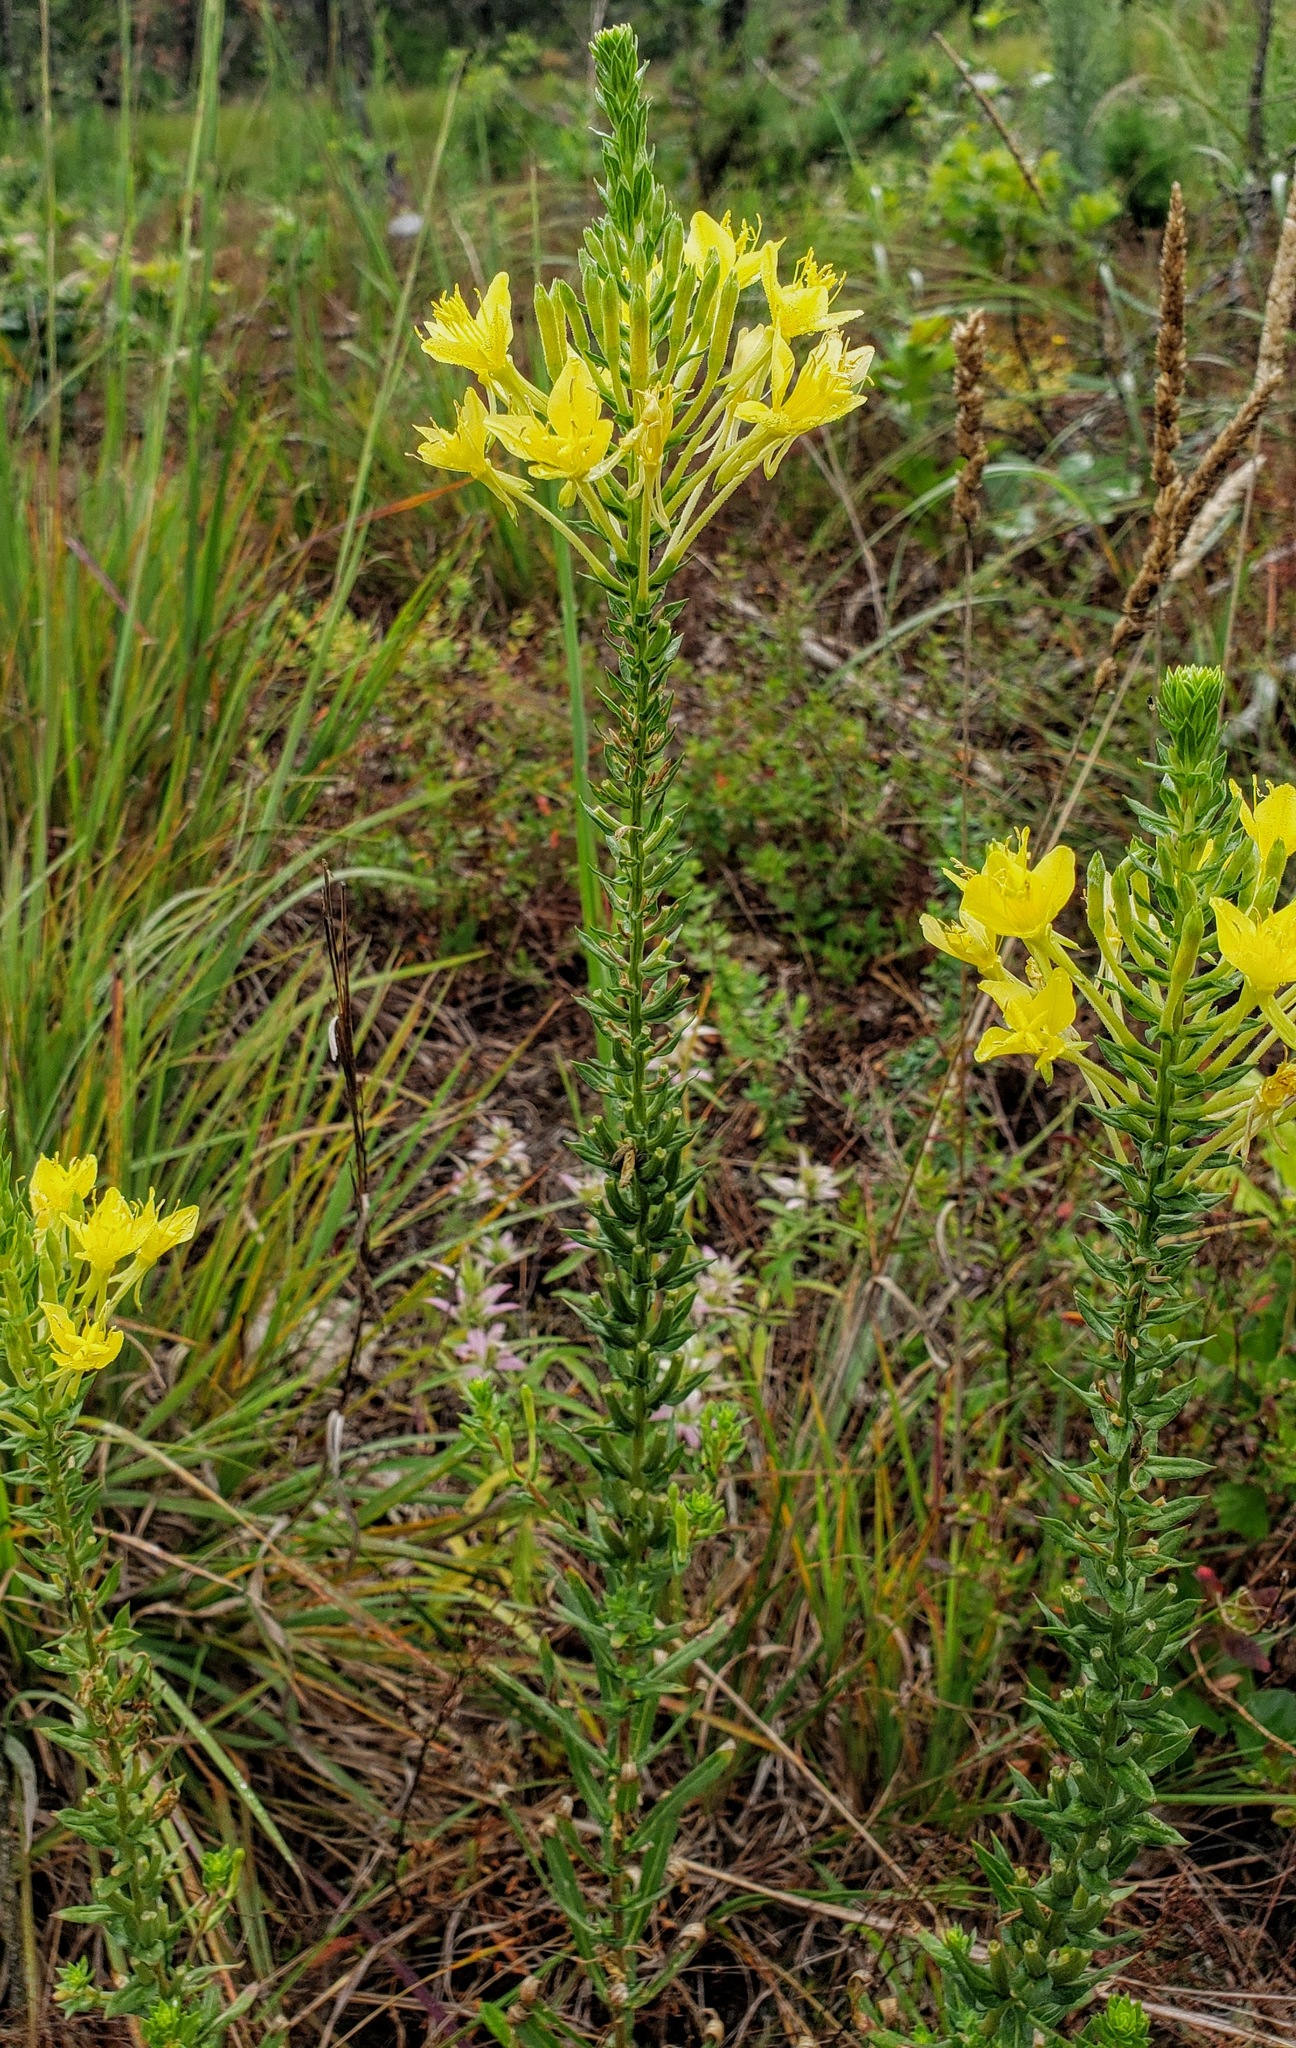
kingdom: Plantae
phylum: Tracheophyta
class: Magnoliopsida
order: Myrtales
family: Onagraceae
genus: Oenothera
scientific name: Oenothera clelandii
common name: Cleland's evening-primrose
